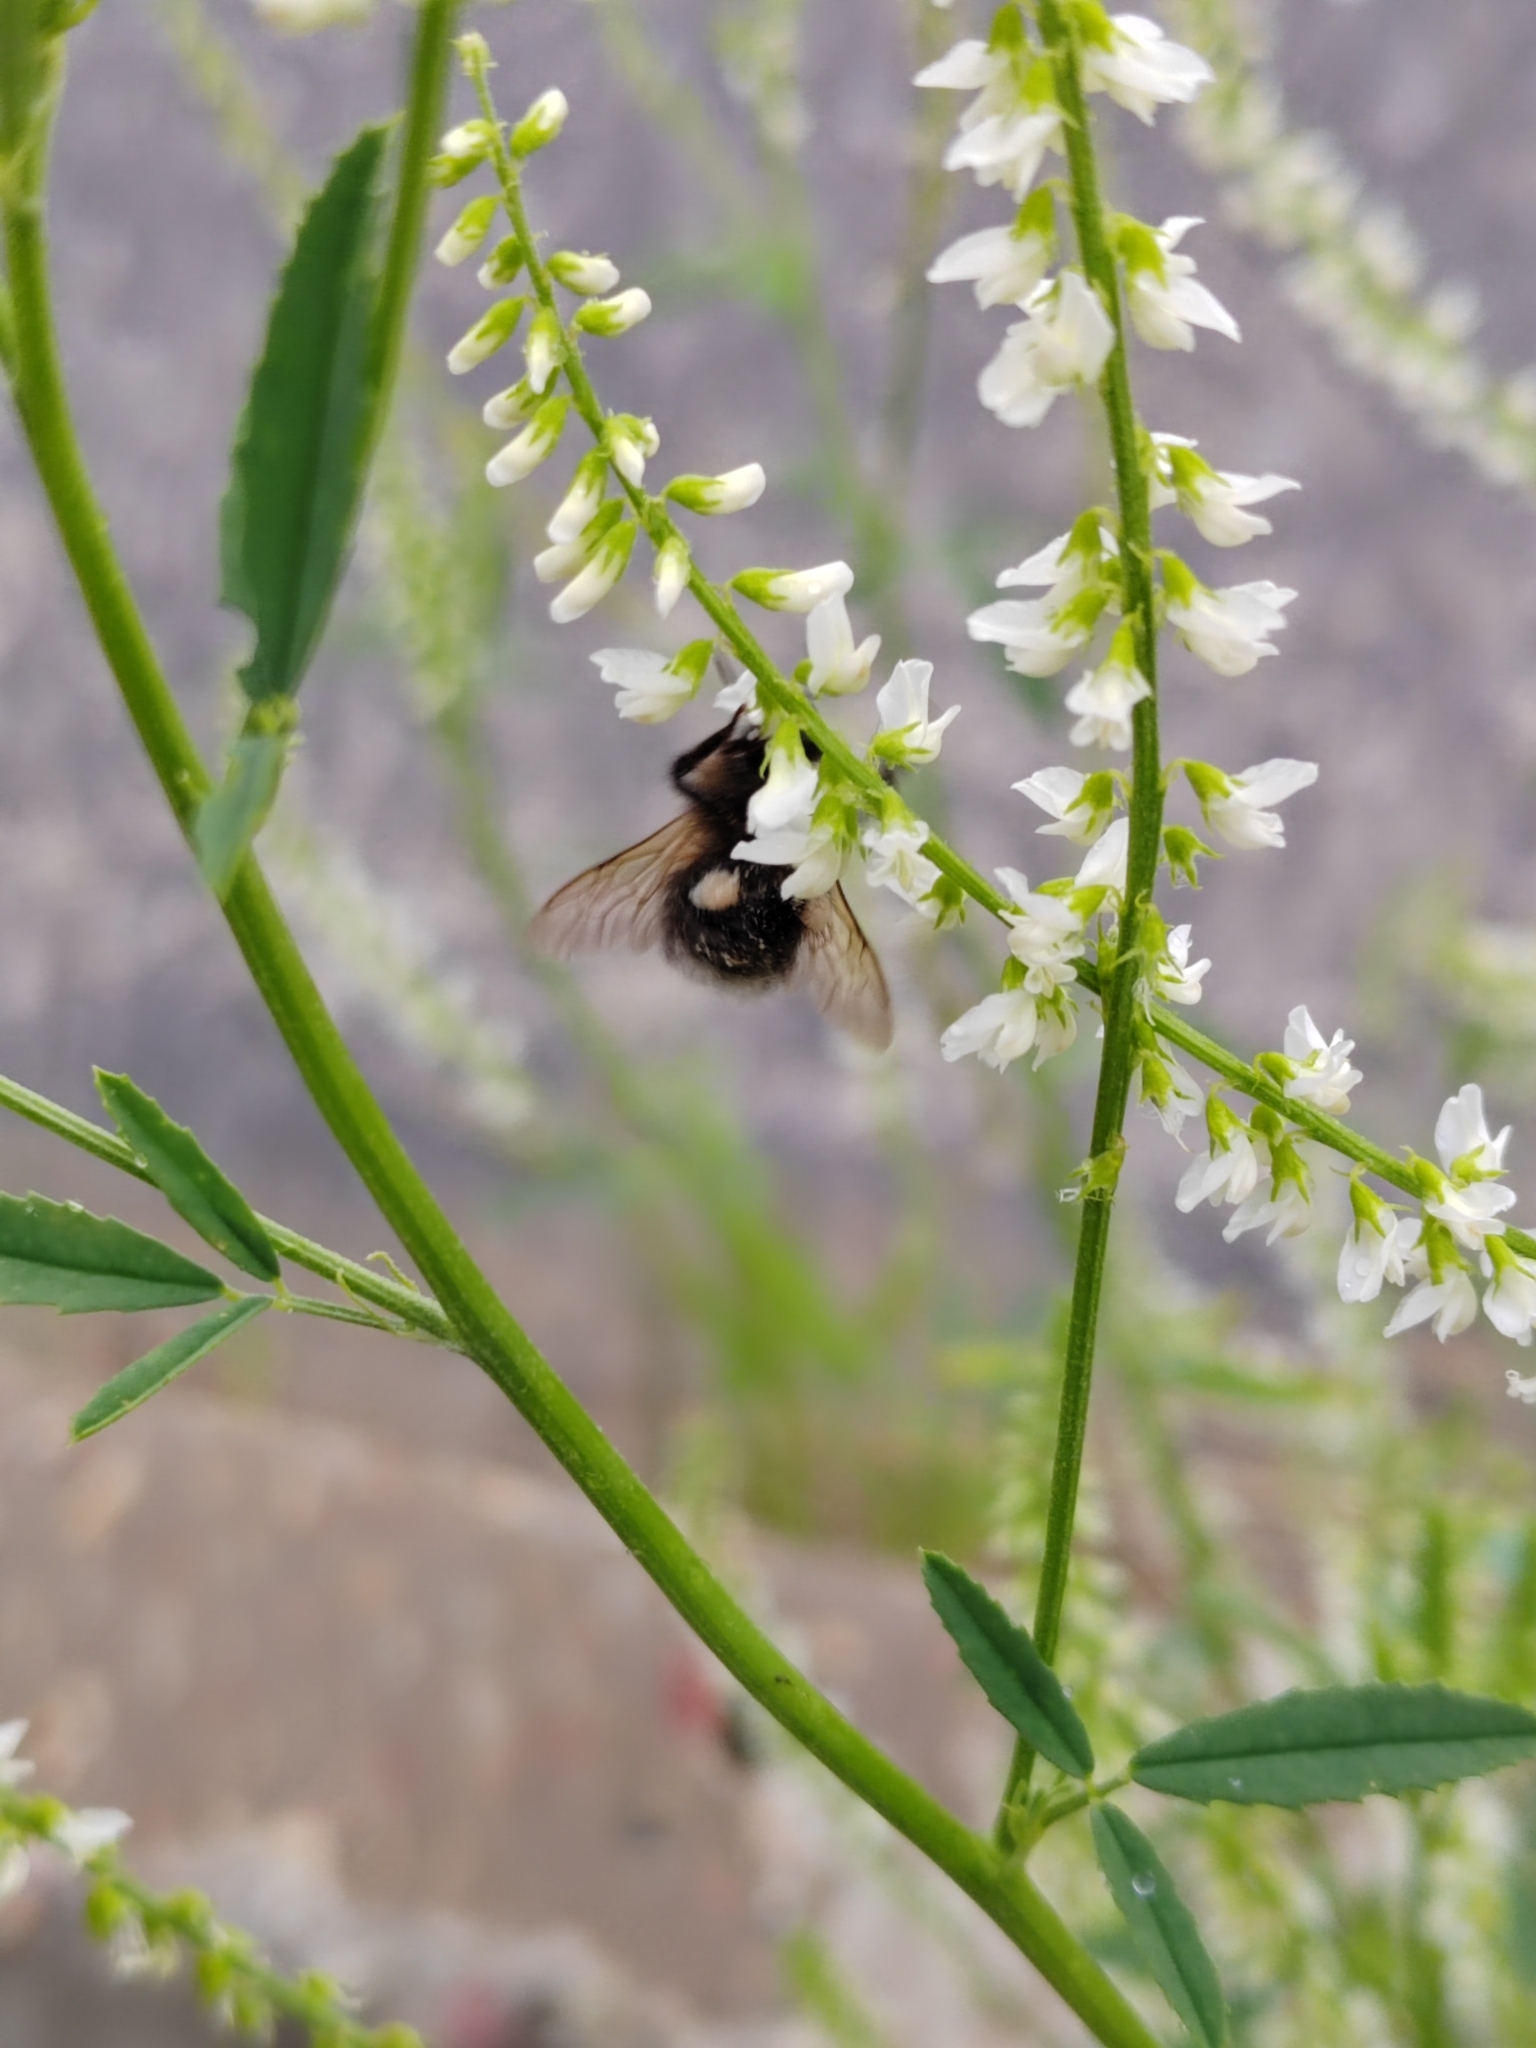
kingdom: Animalia
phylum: Arthropoda
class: Insecta
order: Hymenoptera
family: Apidae
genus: Bombus
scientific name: Bombus hypnorum
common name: New garden bumblebee
